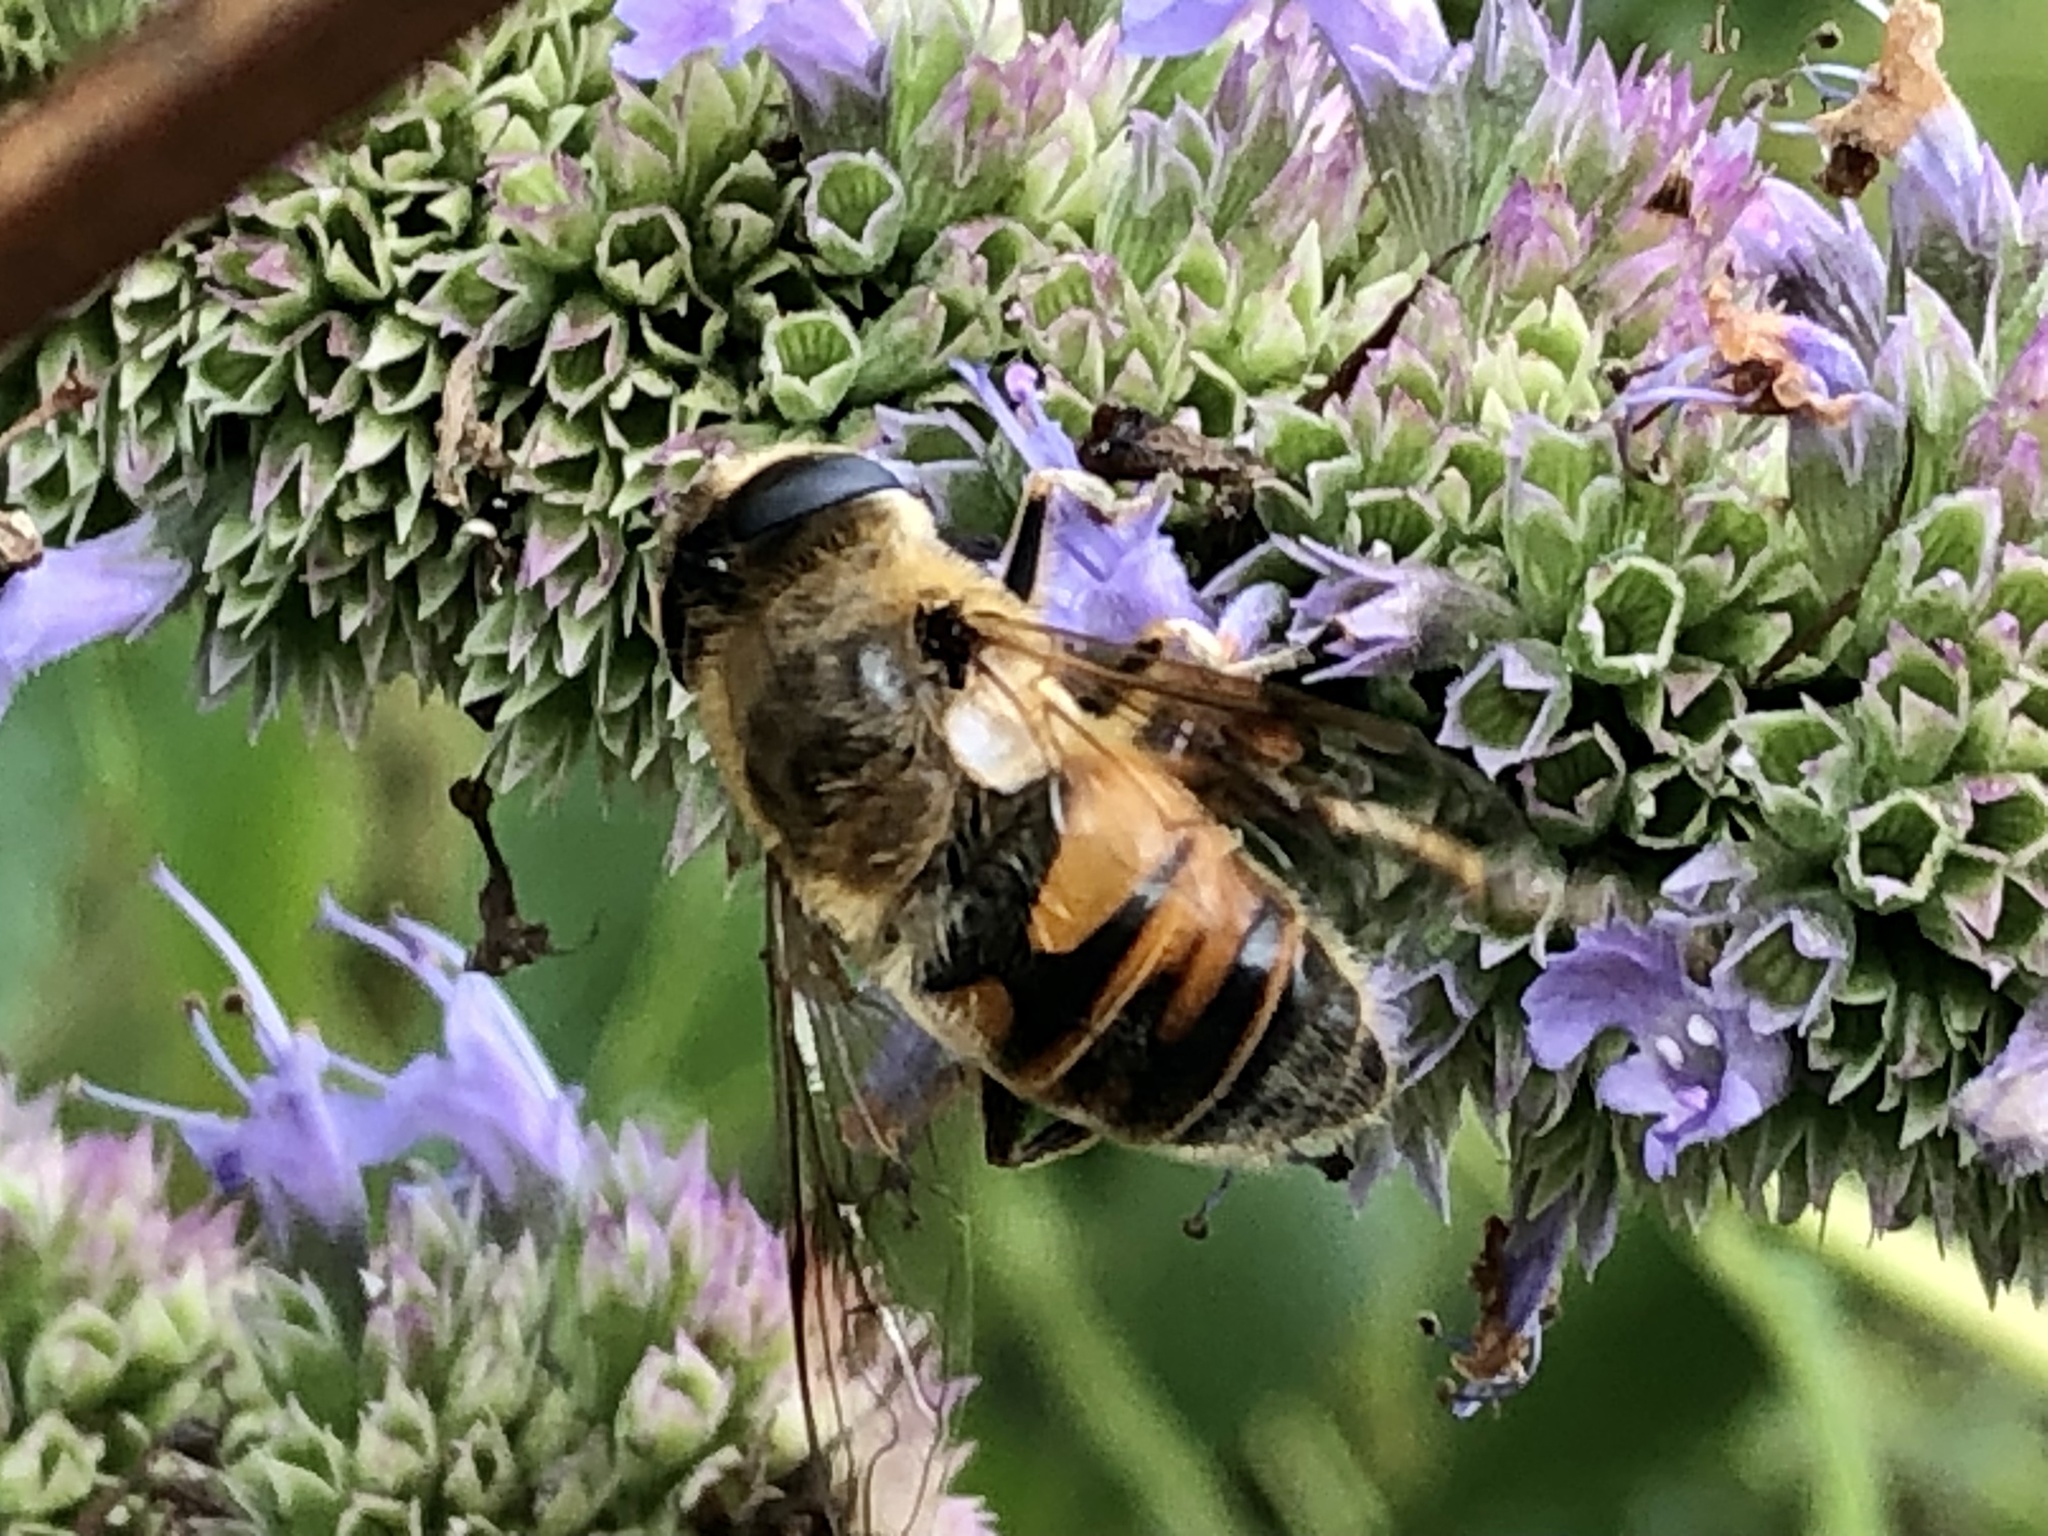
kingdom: Animalia
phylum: Arthropoda
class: Insecta
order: Diptera
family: Syrphidae
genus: Eristalis
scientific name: Eristalis tenax
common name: Drone fly
